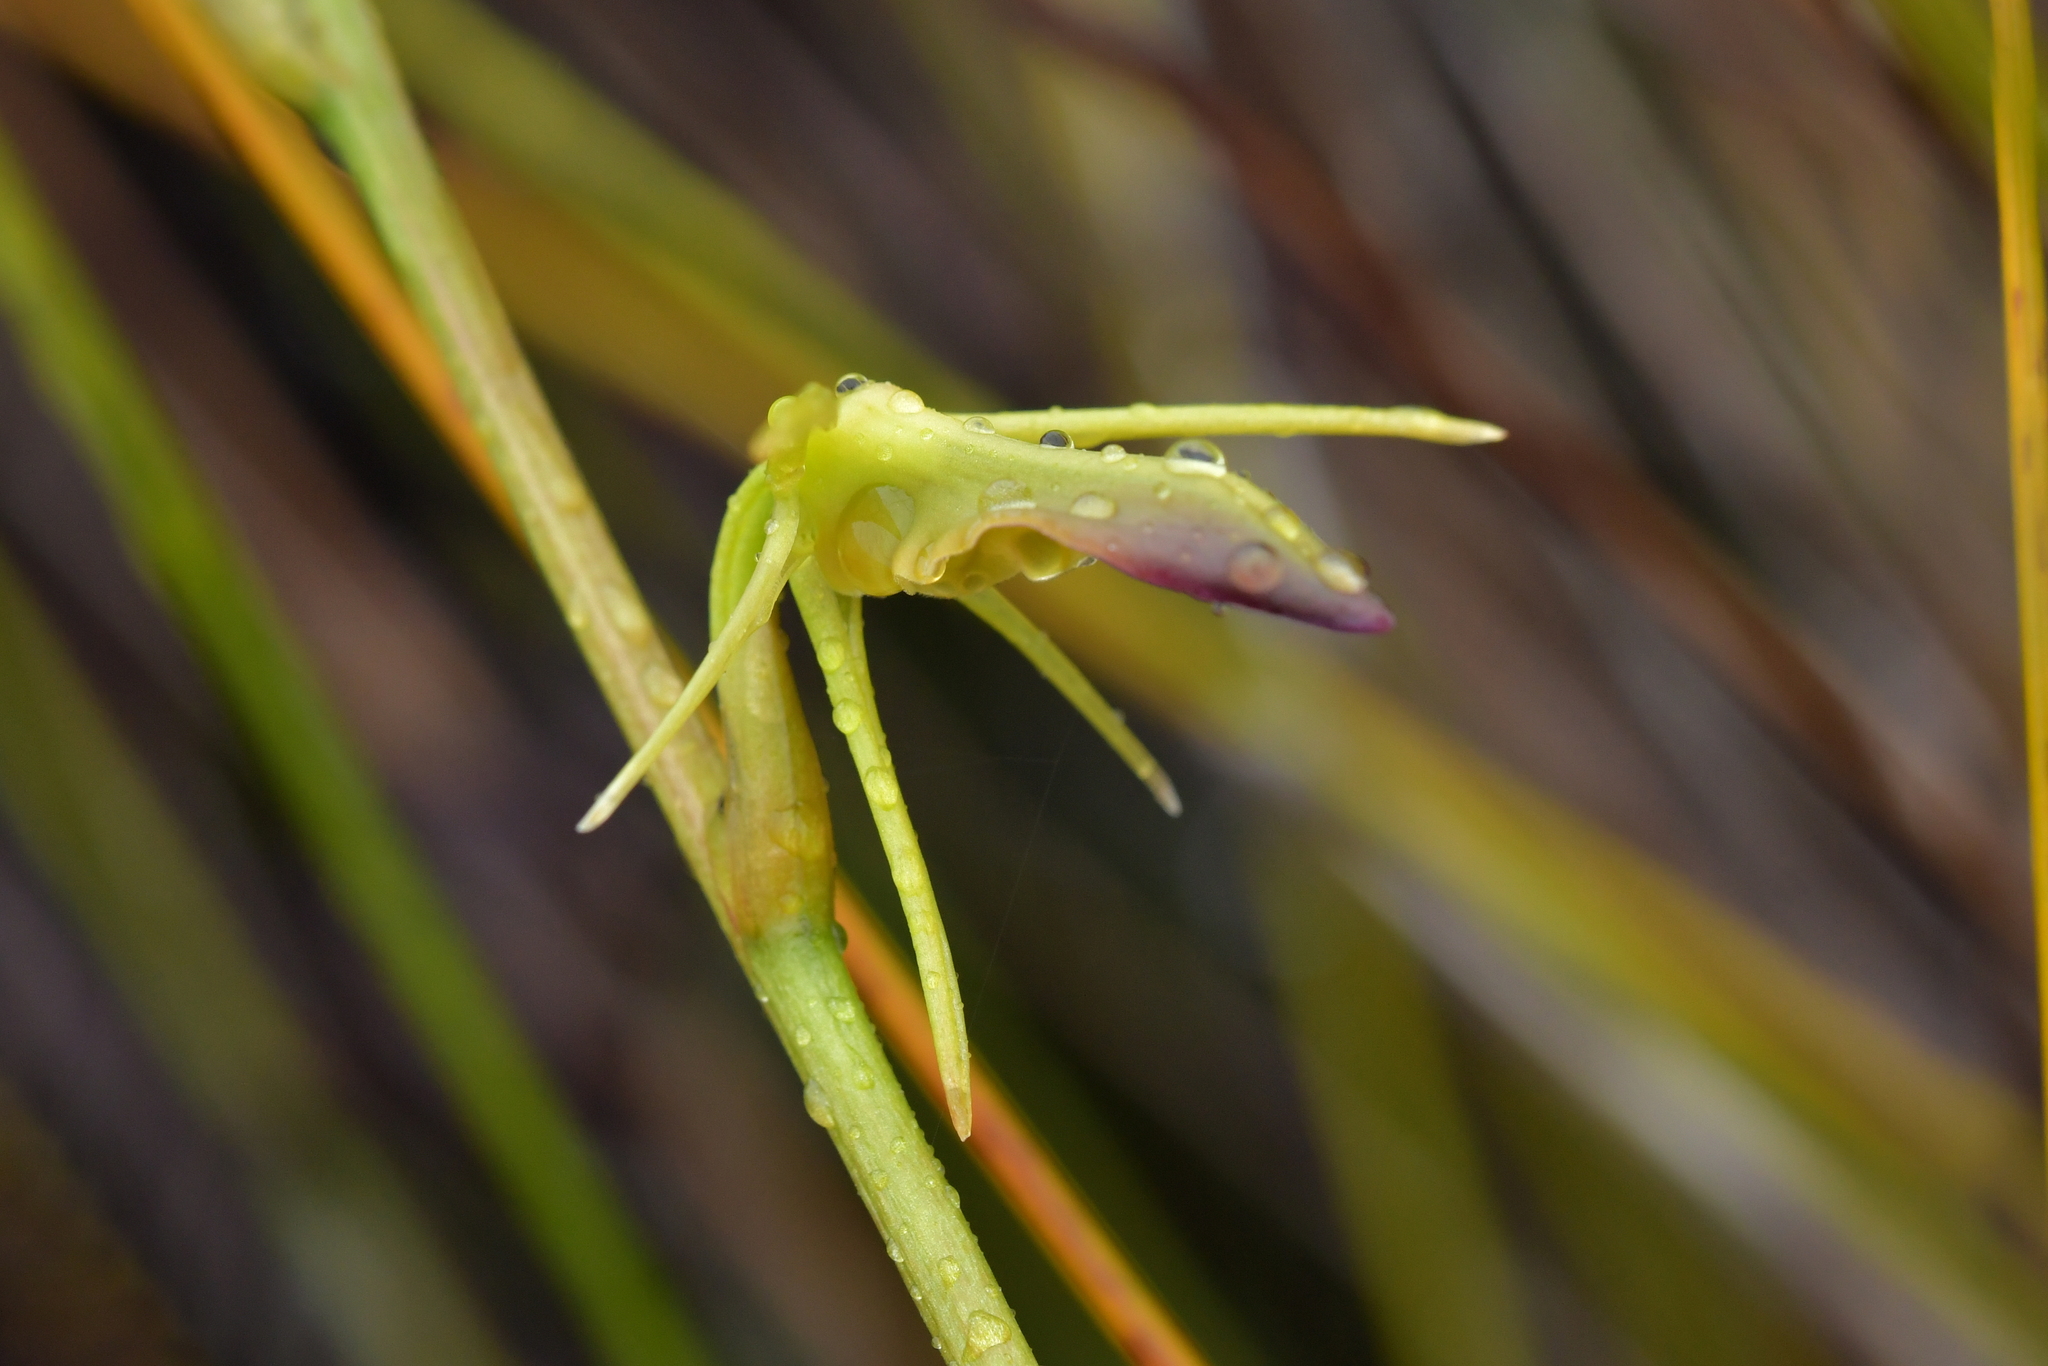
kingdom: Plantae
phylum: Tracheophyta
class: Liliopsida
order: Asparagales
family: Orchidaceae
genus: Cryptostylis
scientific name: Cryptostylis subulata
